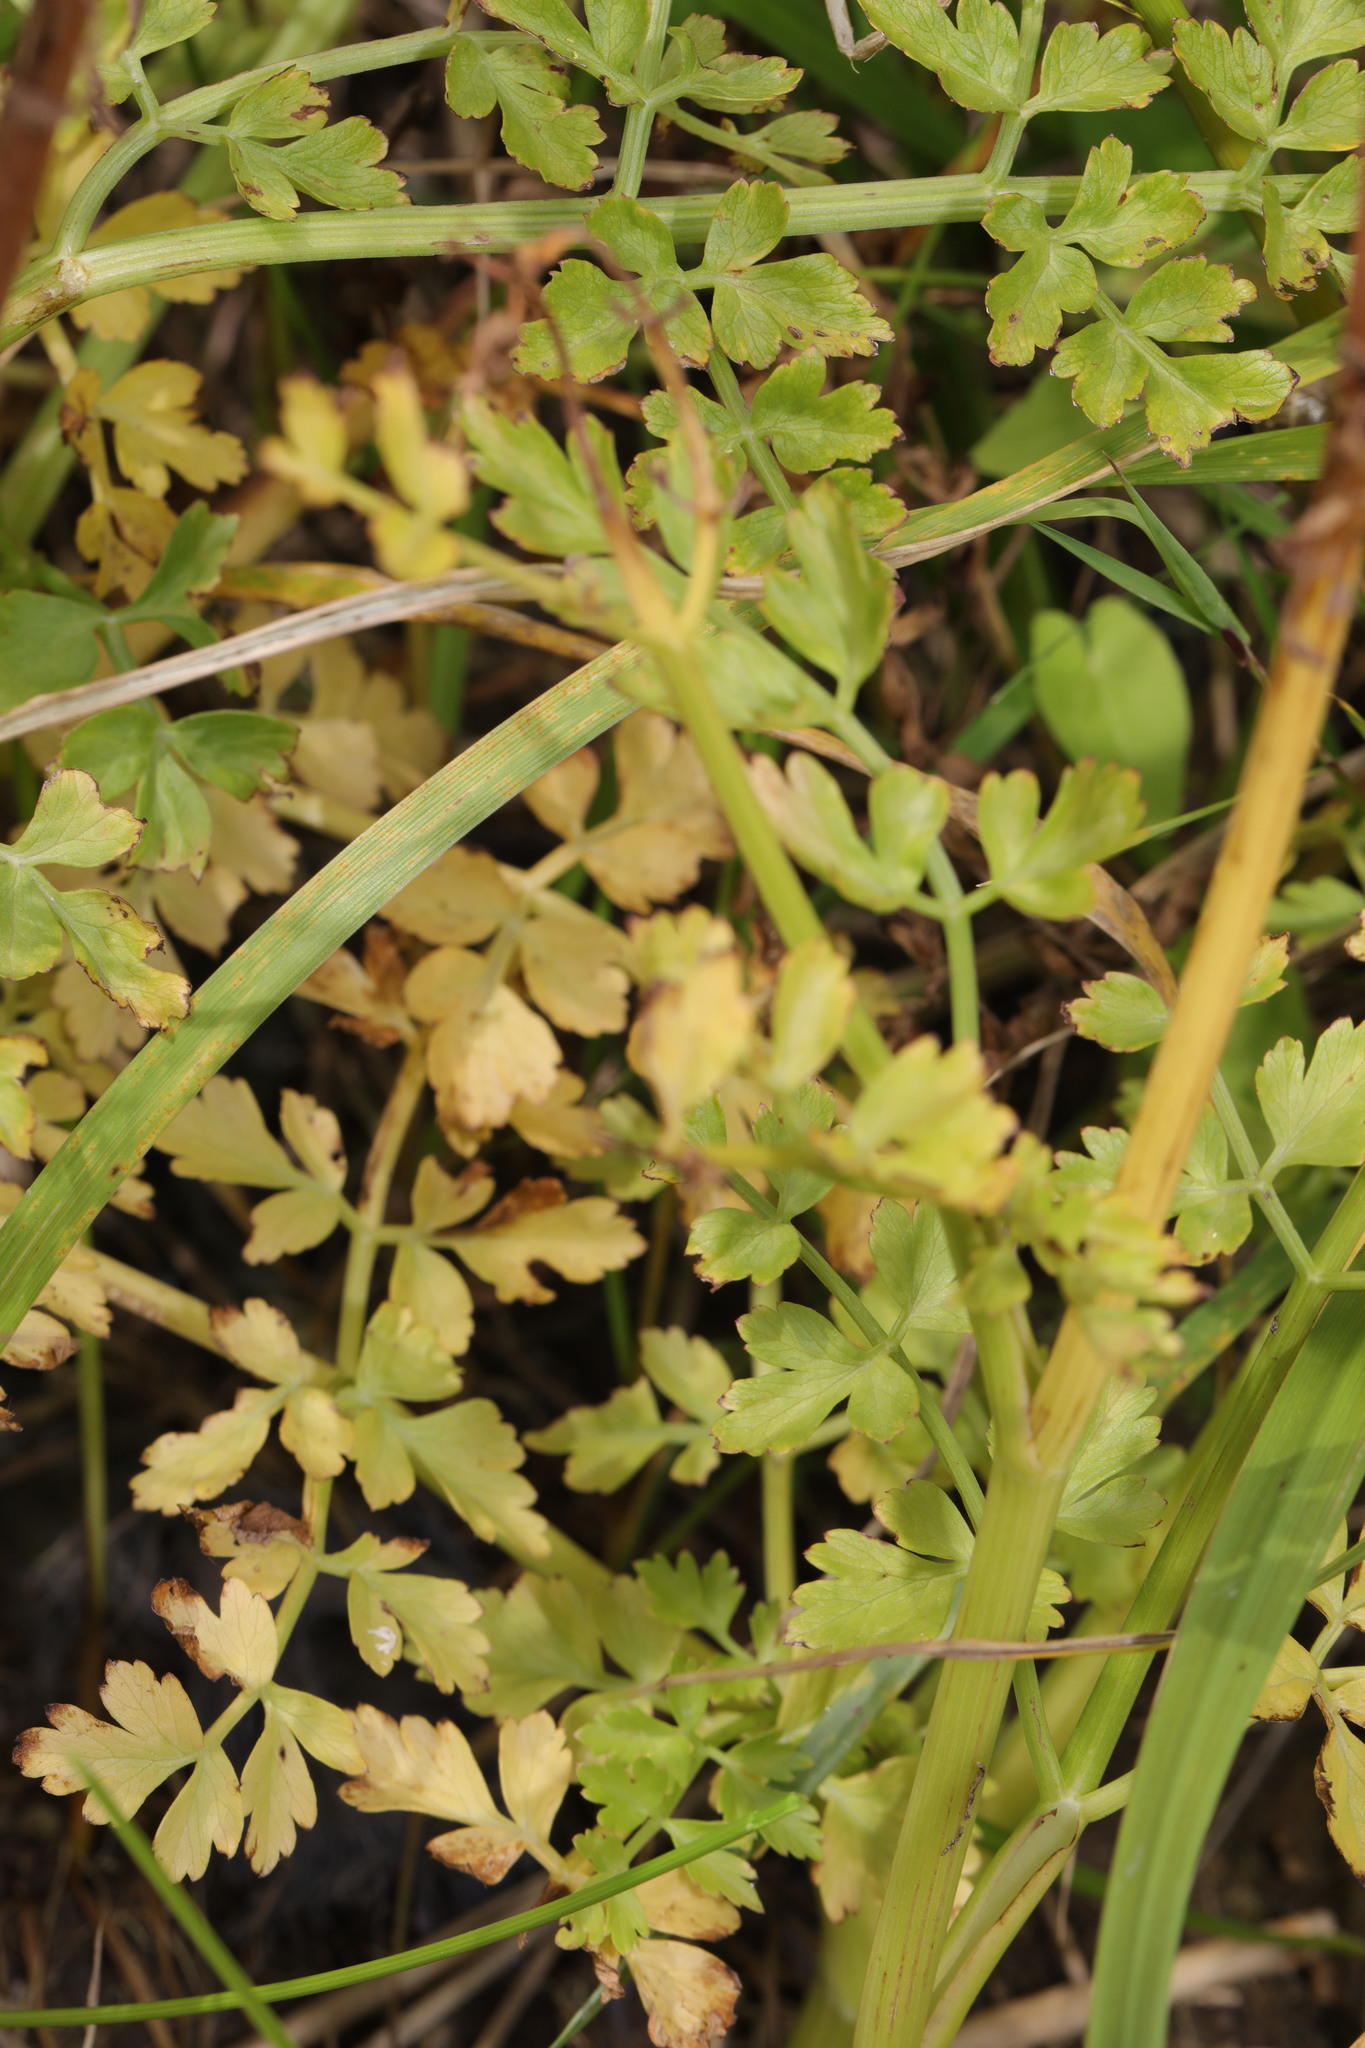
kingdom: Plantae
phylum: Tracheophyta
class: Magnoliopsida
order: Apiales
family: Apiaceae
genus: Oenanthe
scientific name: Oenanthe crocata
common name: Hemlock water-dropwort
